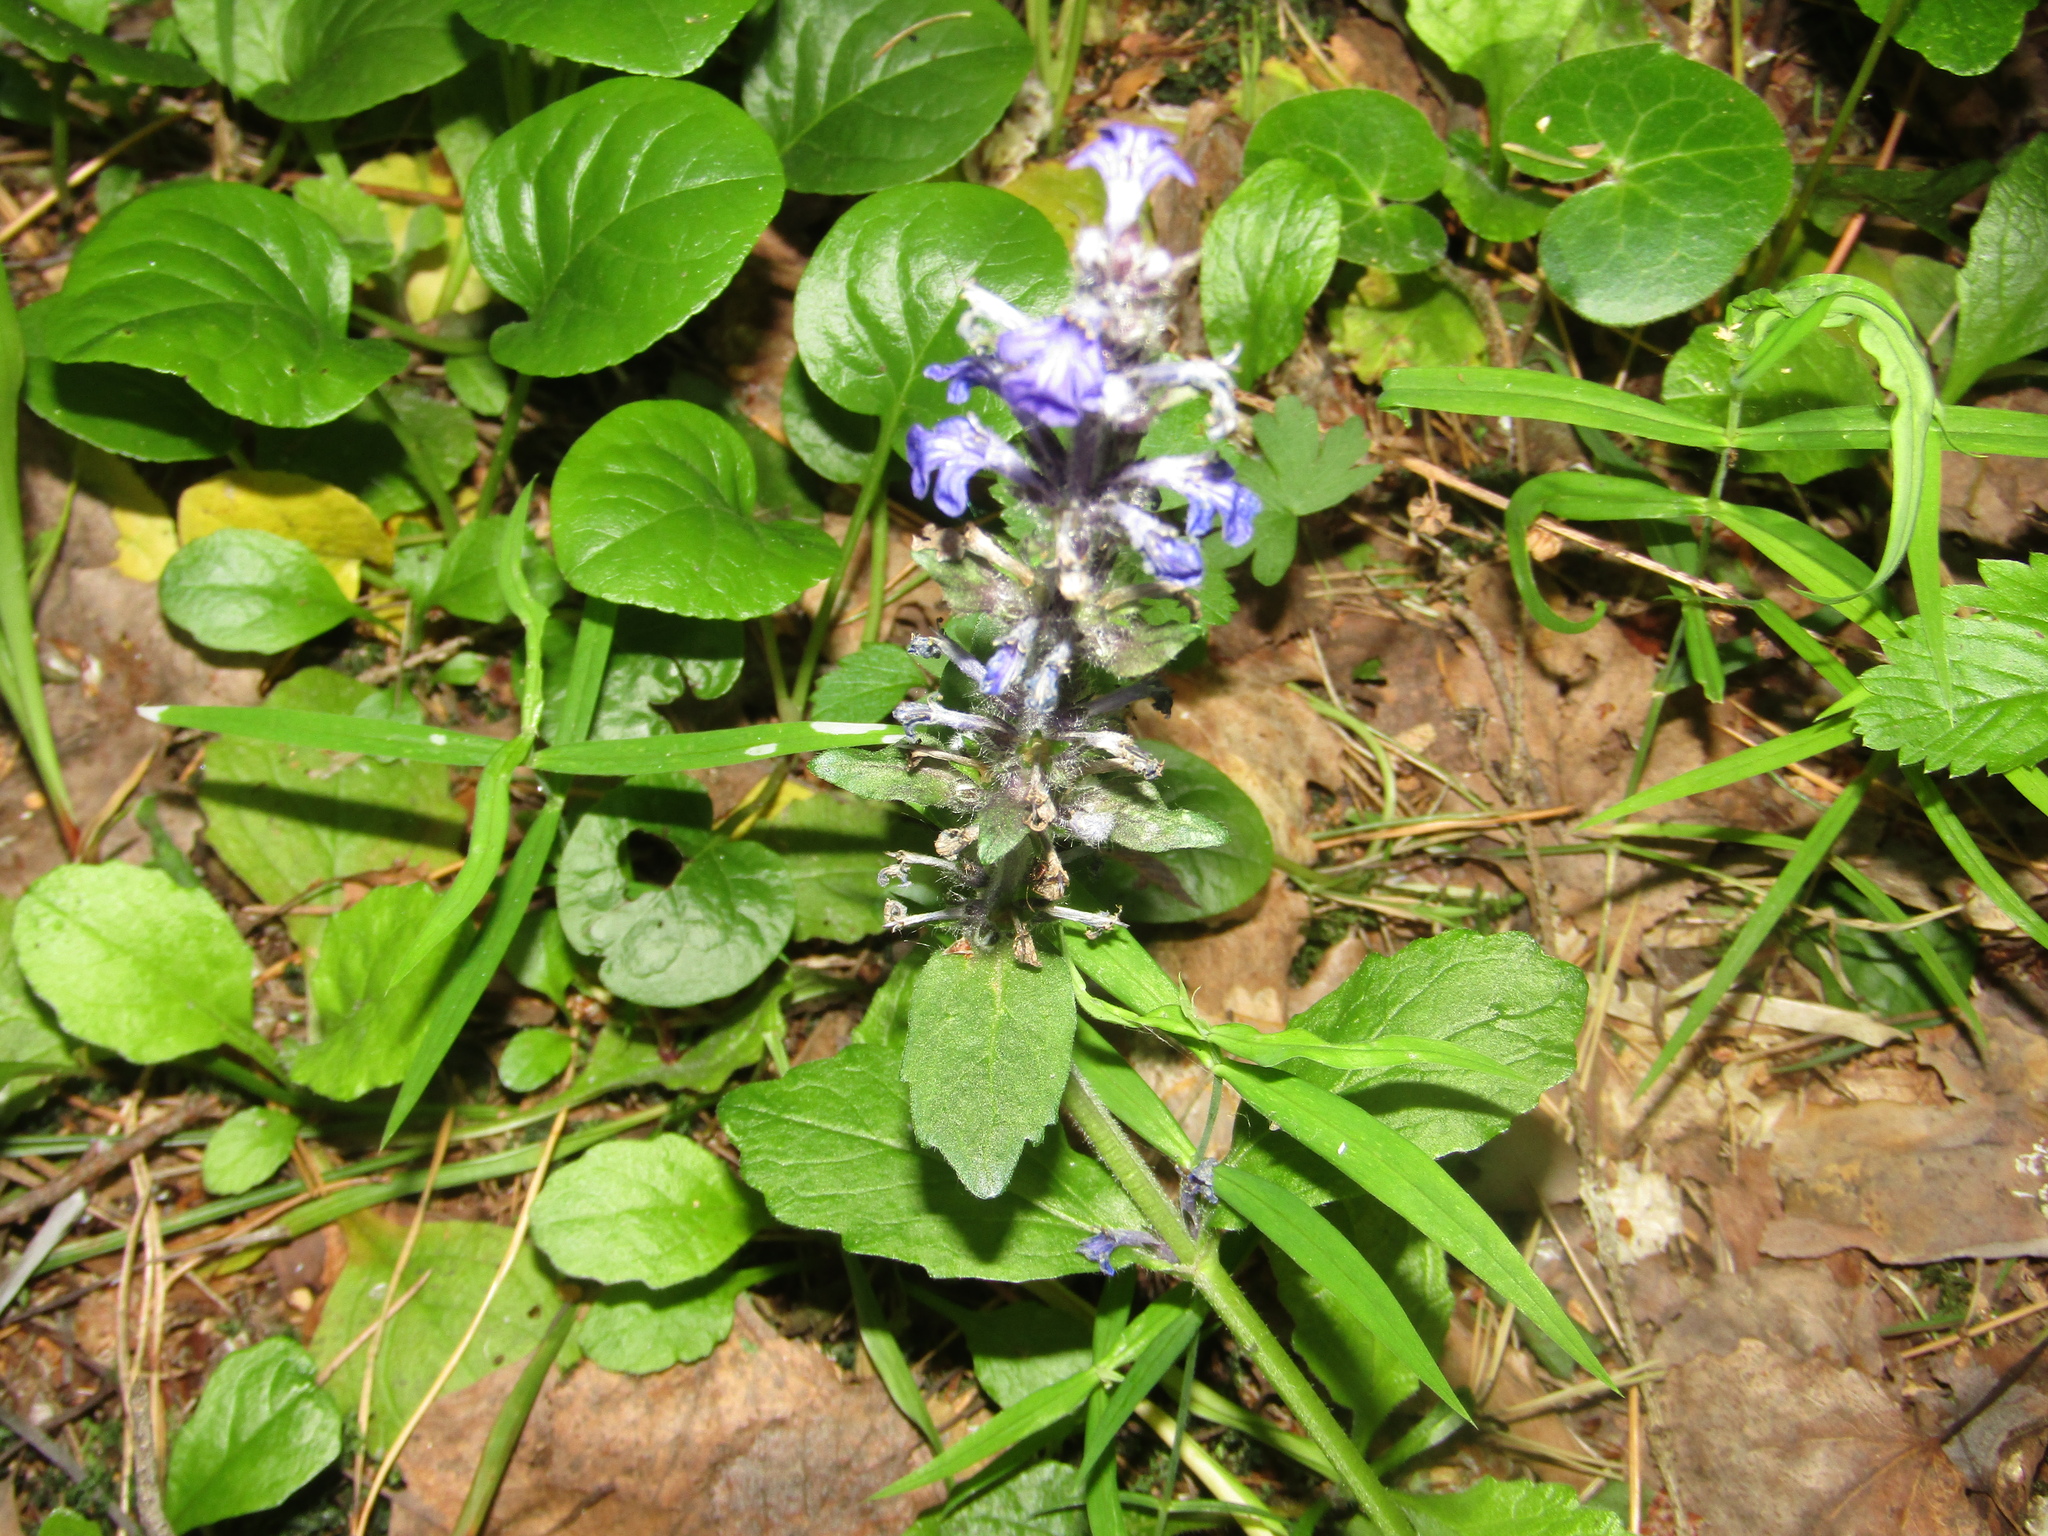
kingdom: Plantae
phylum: Tracheophyta
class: Magnoliopsida
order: Lamiales
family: Lamiaceae
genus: Ajuga
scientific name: Ajuga reptans
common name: Bugle
